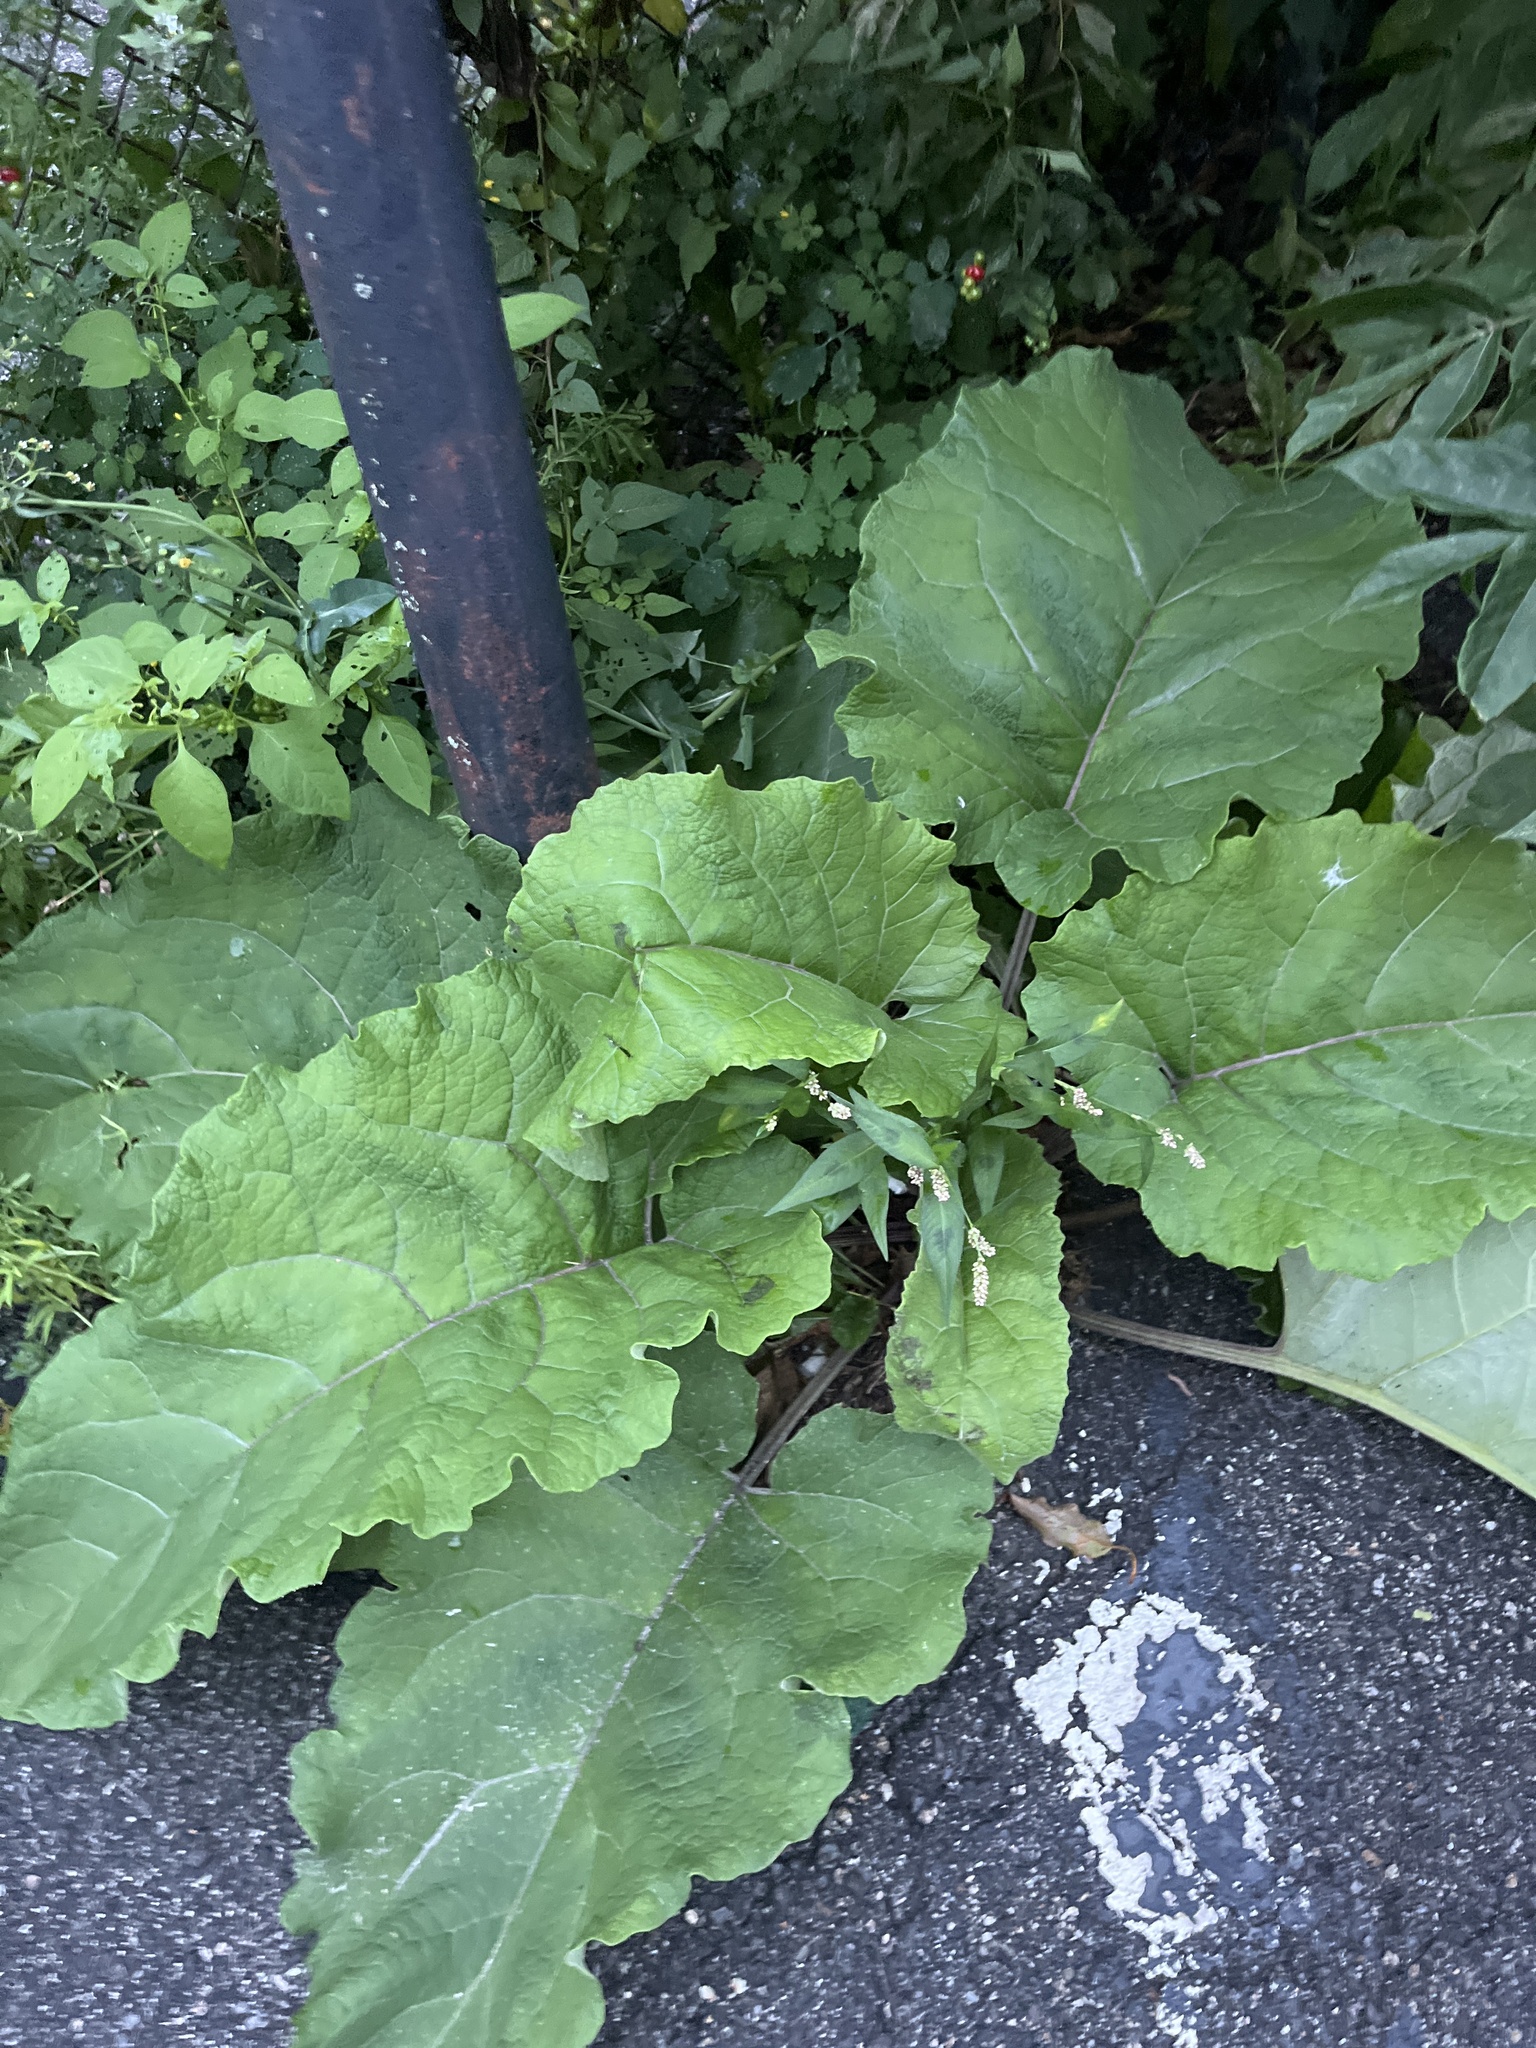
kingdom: Plantae
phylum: Tracheophyta
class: Magnoliopsida
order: Asterales
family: Asteraceae
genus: Arctium
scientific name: Arctium
